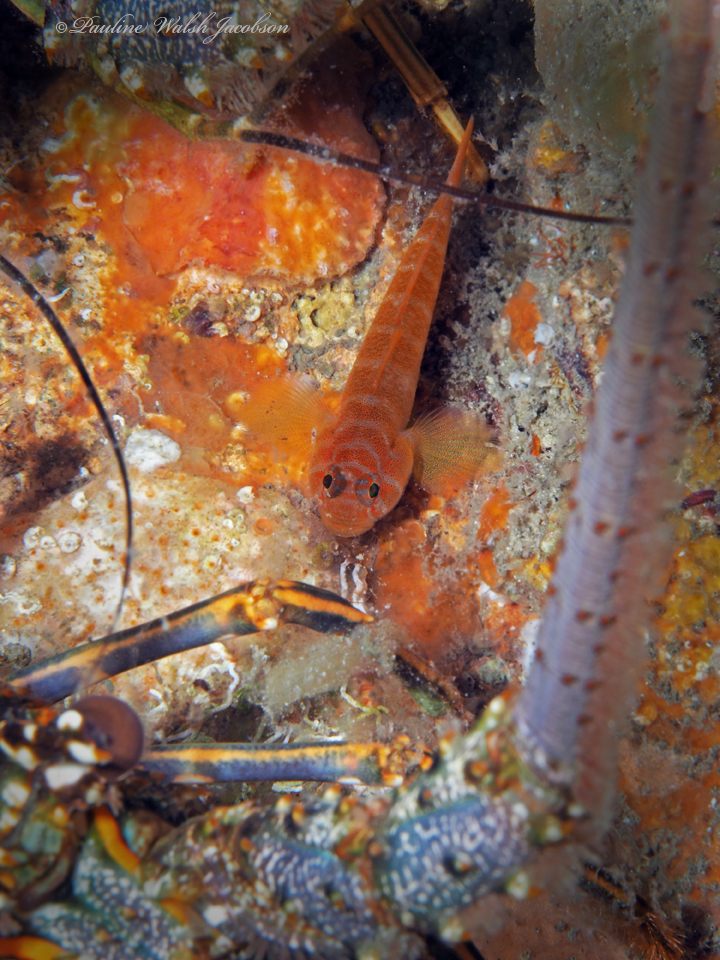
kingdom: Animalia
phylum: Chordata
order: Perciformes
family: Gobiidae
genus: Priolepis
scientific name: Priolepis hipoliti
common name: Rusty goby
